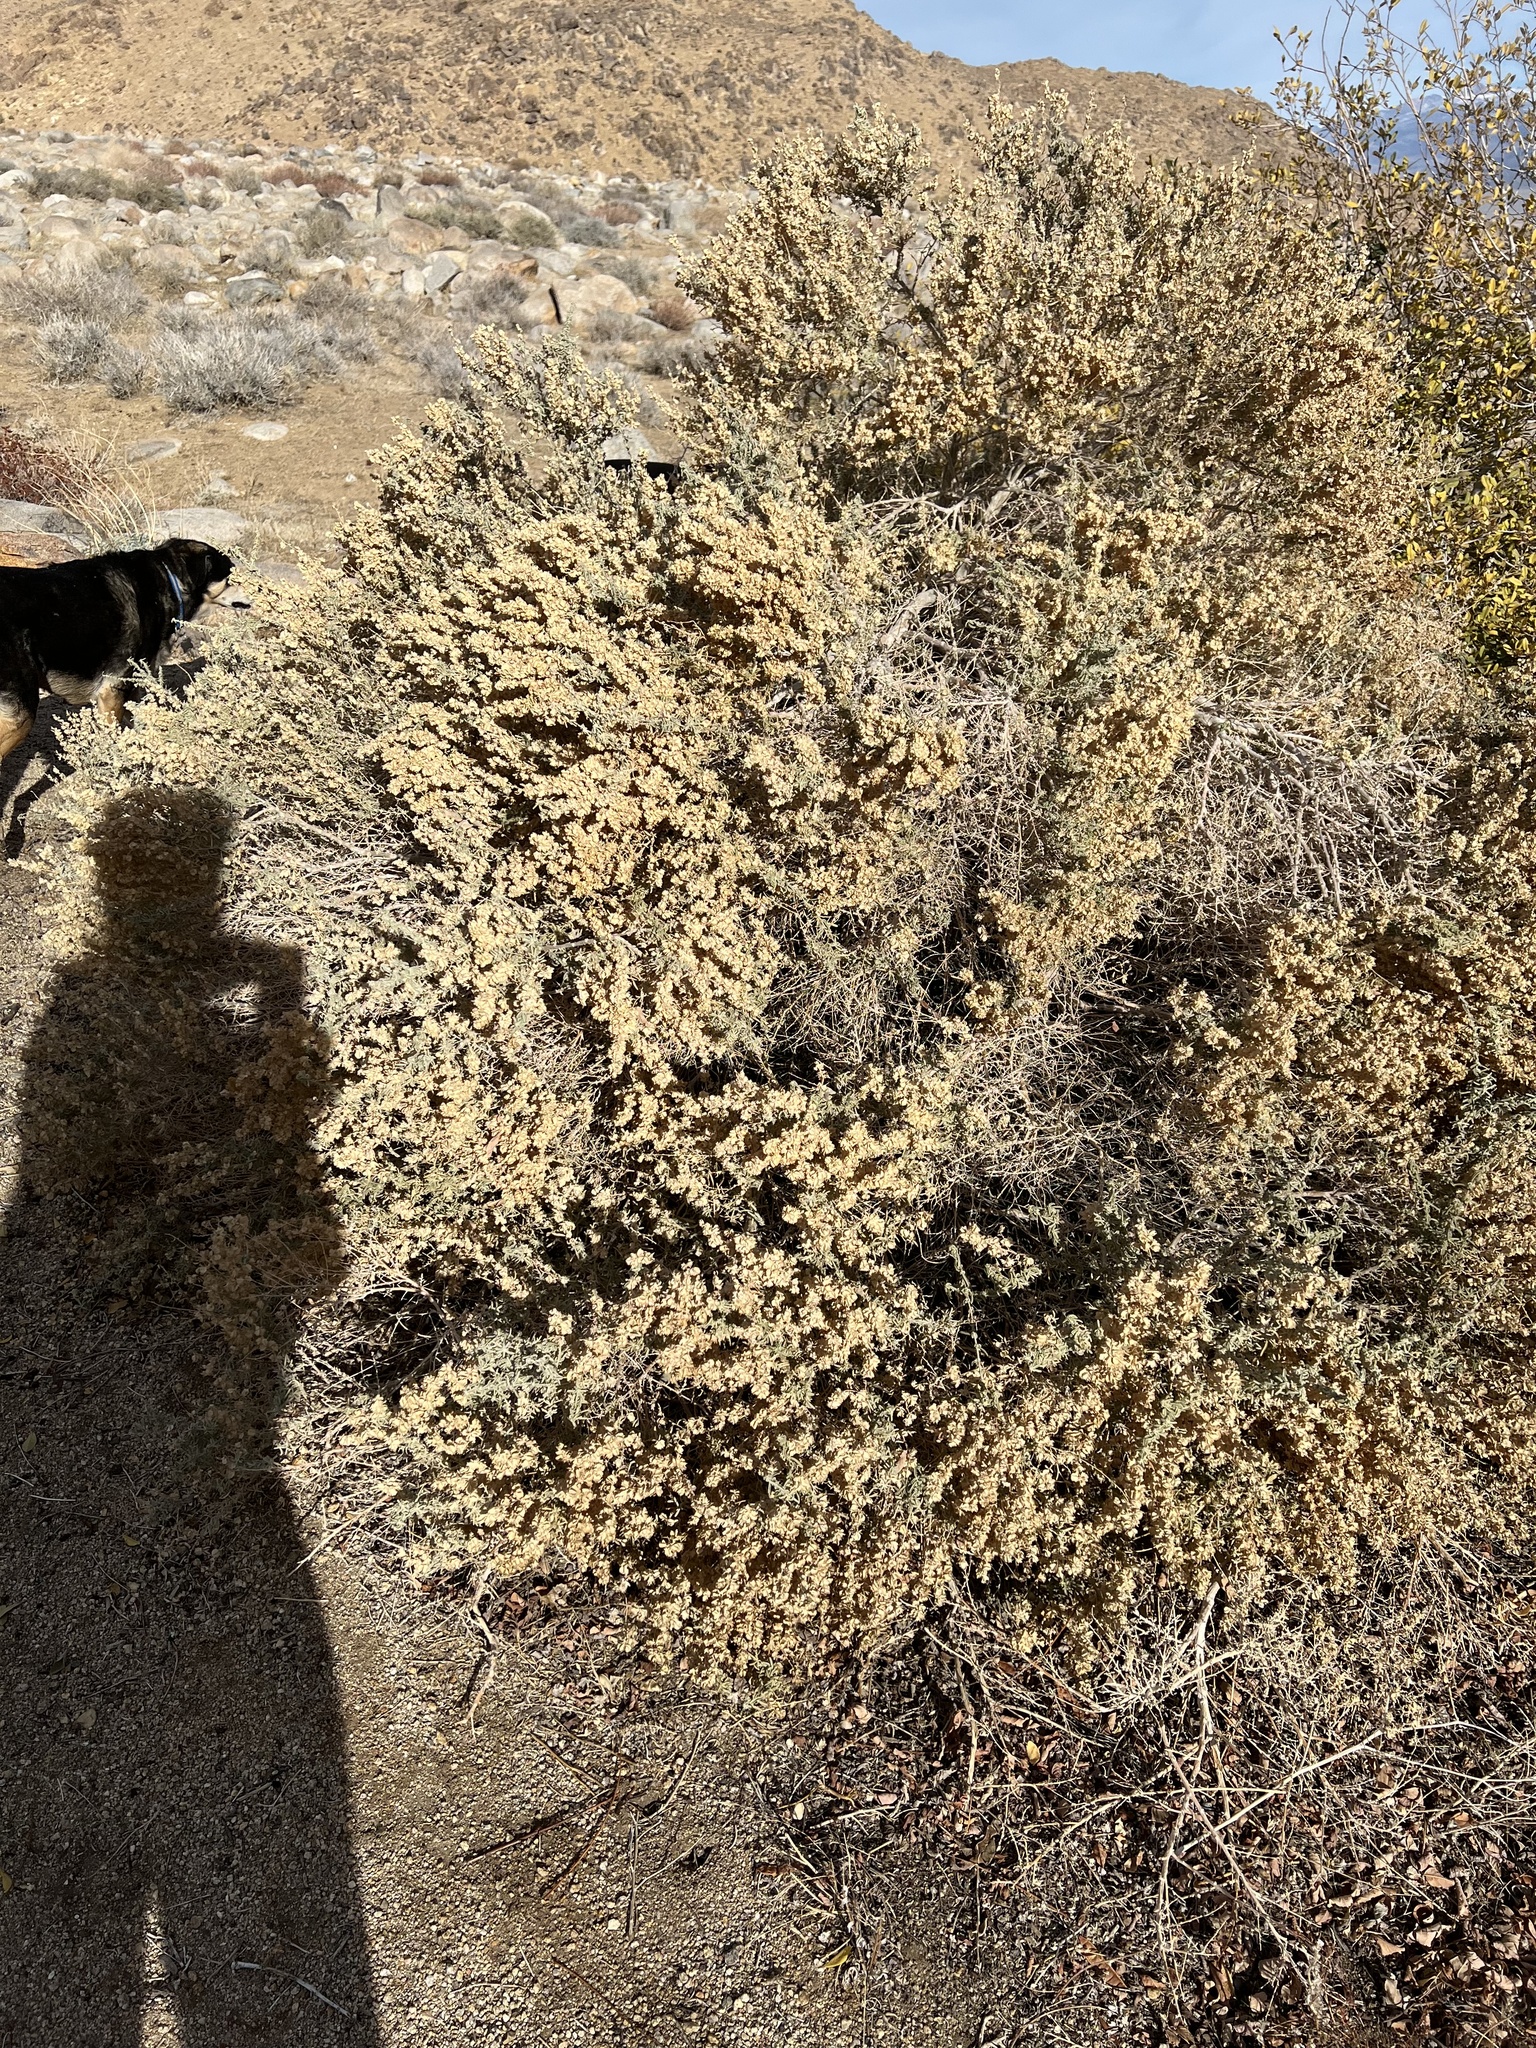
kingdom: Plantae
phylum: Tracheophyta
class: Magnoliopsida
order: Caryophyllales
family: Amaranthaceae
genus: Atriplex
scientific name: Atriplex canescens
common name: Four-wing saltbush
